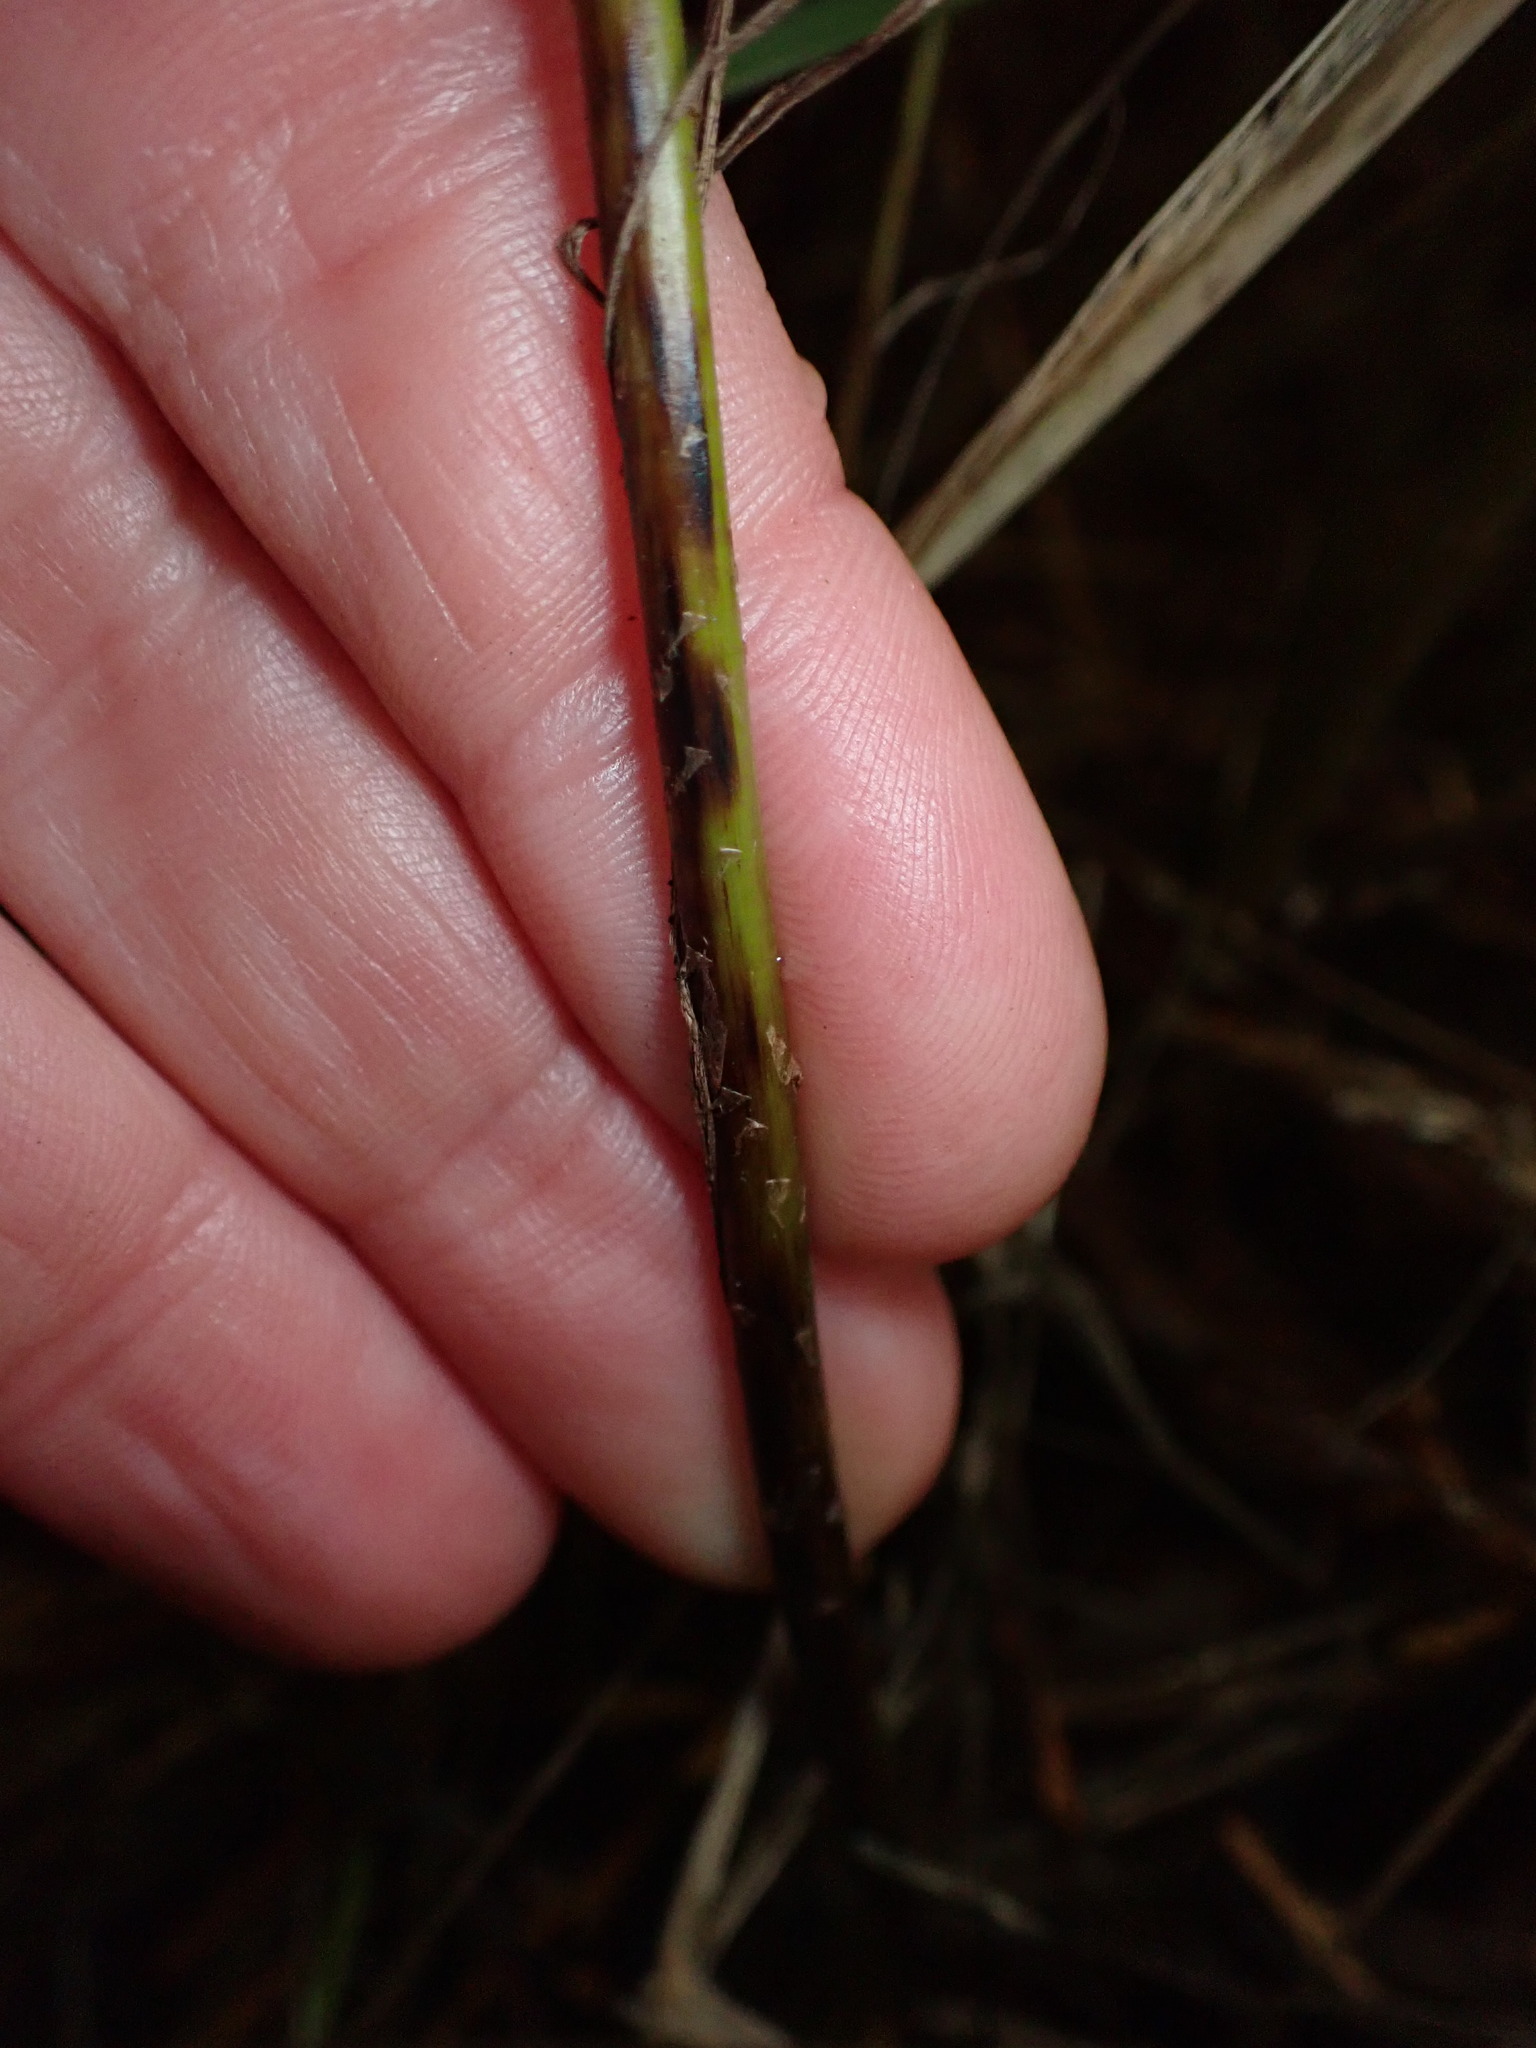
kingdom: Plantae
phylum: Tracheophyta
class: Polypodiopsida
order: Polypodiales
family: Blechnaceae
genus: Parablechnum
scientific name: Parablechnum minus
